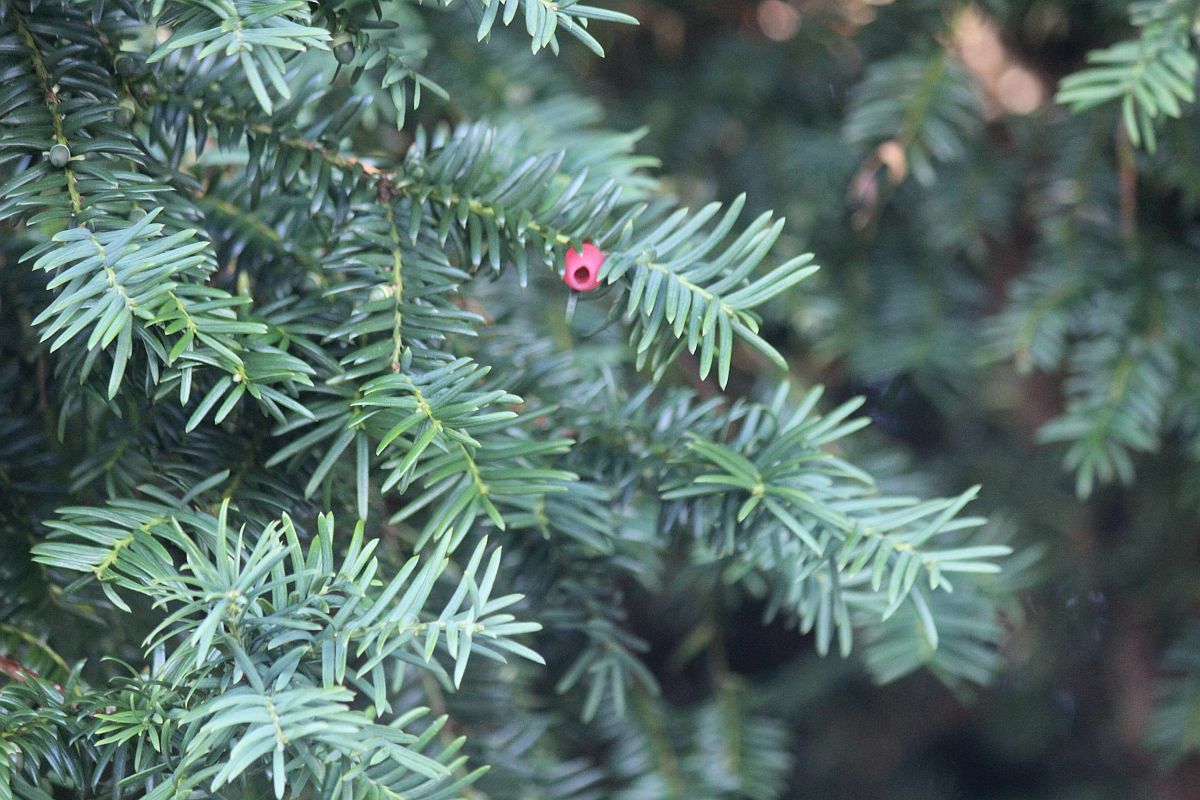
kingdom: Plantae
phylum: Tracheophyta
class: Pinopsida
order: Pinales
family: Taxaceae
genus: Taxus
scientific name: Taxus baccata
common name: Yew
